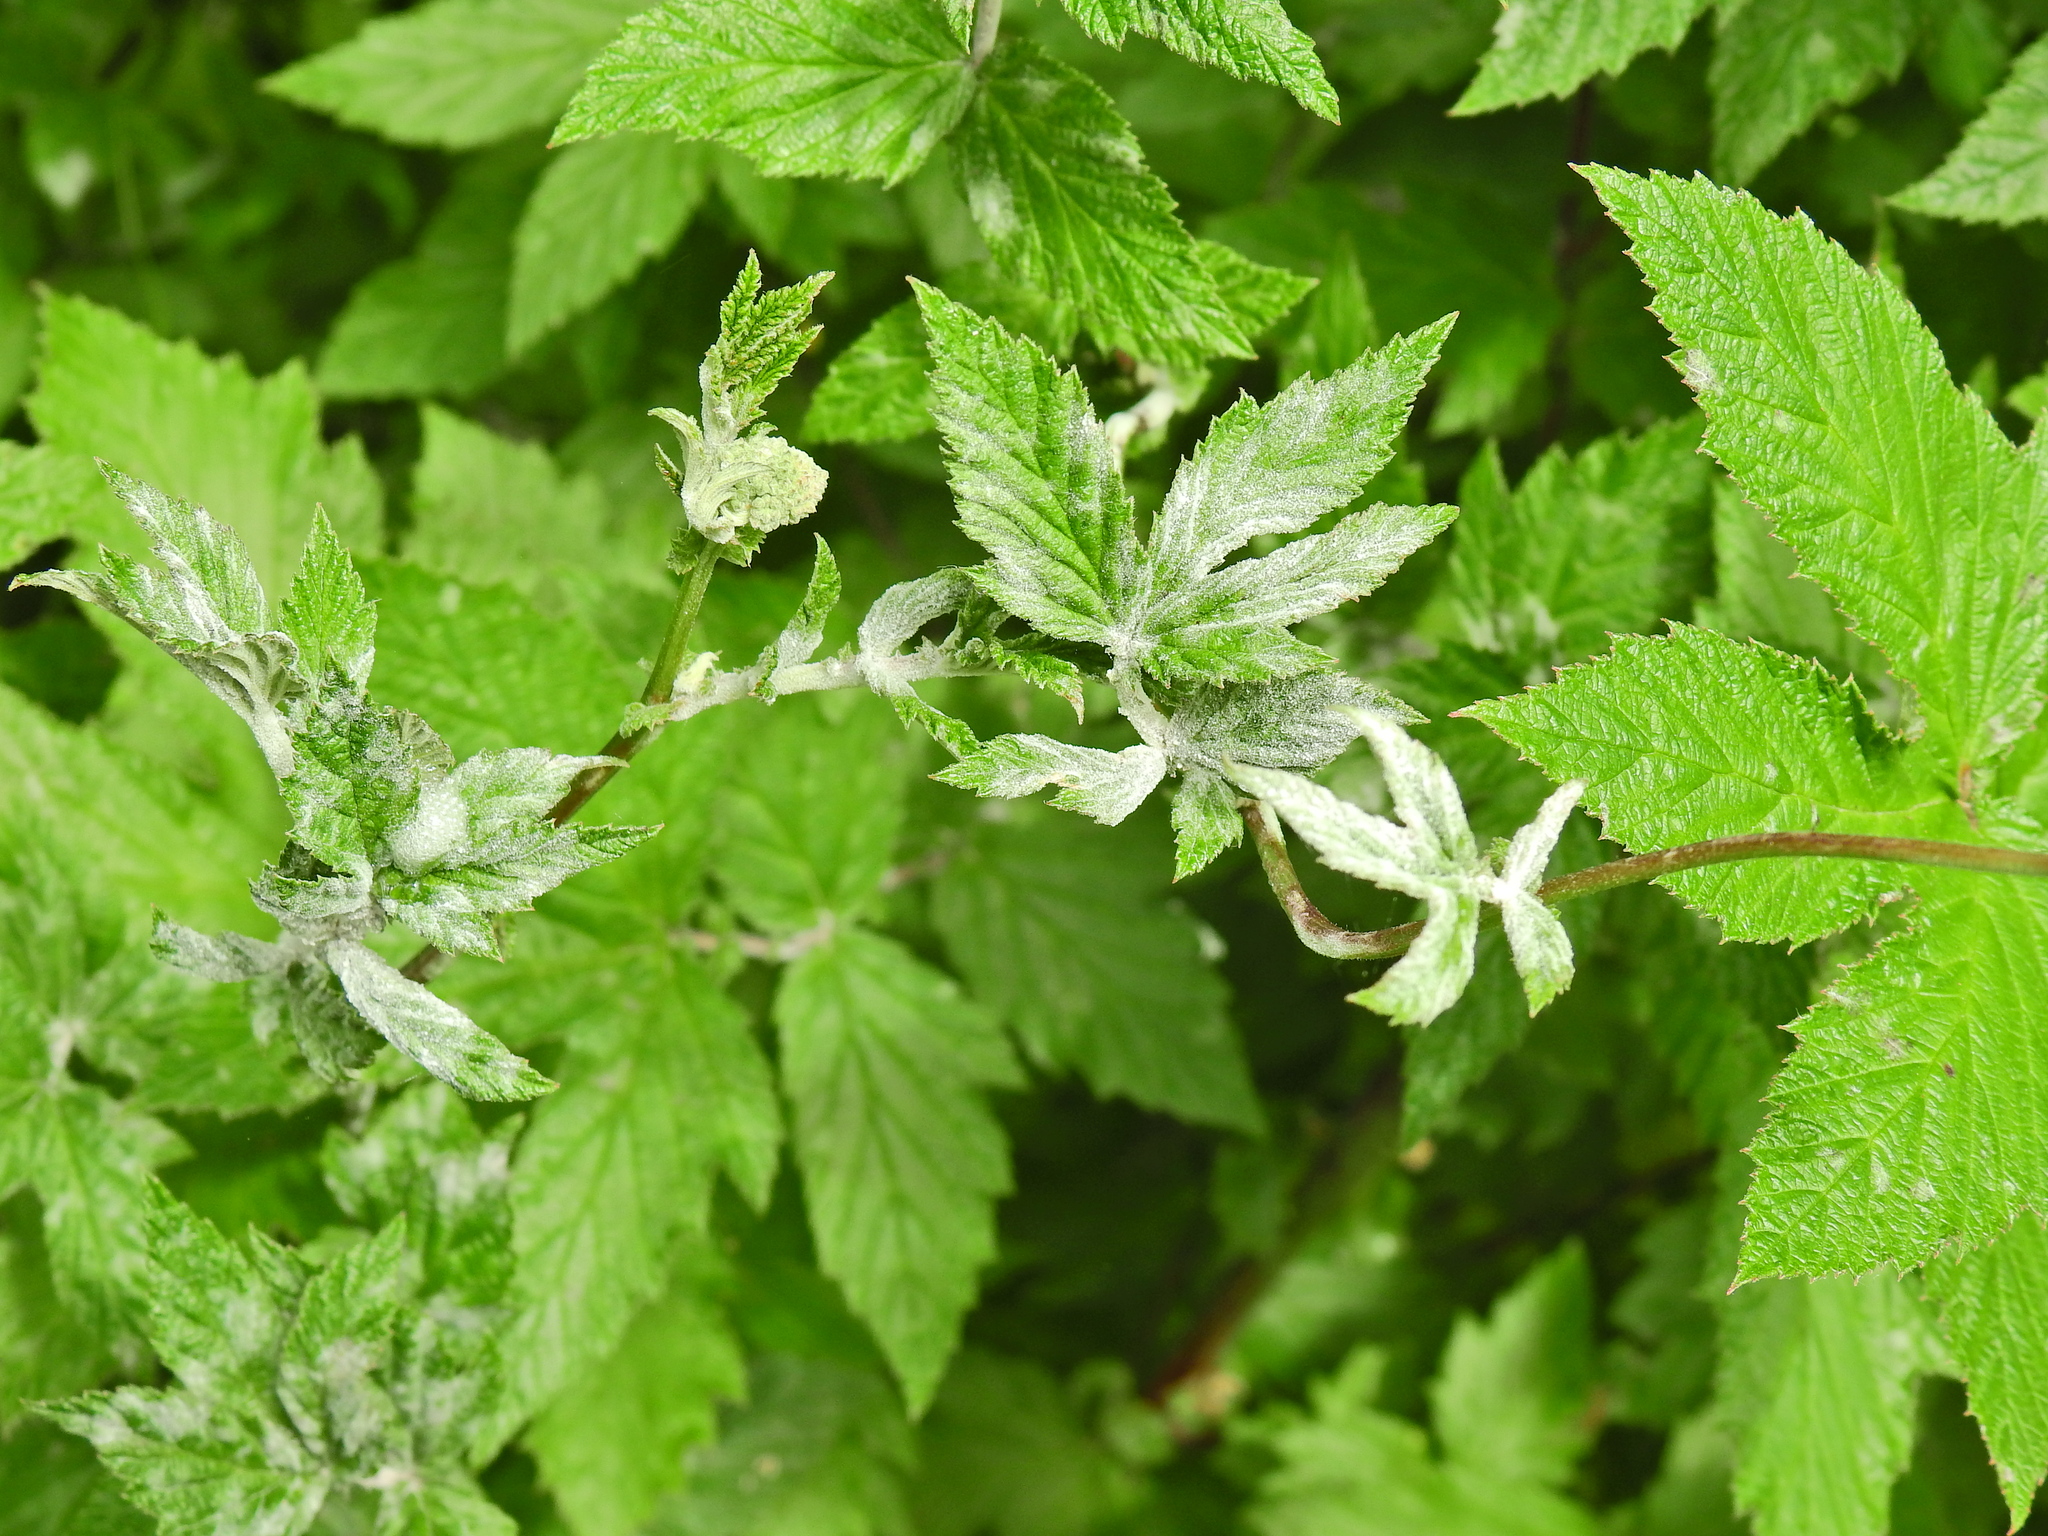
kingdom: Fungi
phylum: Ascomycota
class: Leotiomycetes
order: Helotiales
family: Erysiphaceae
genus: Podosphaera
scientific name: Podosphaera filipendulae
